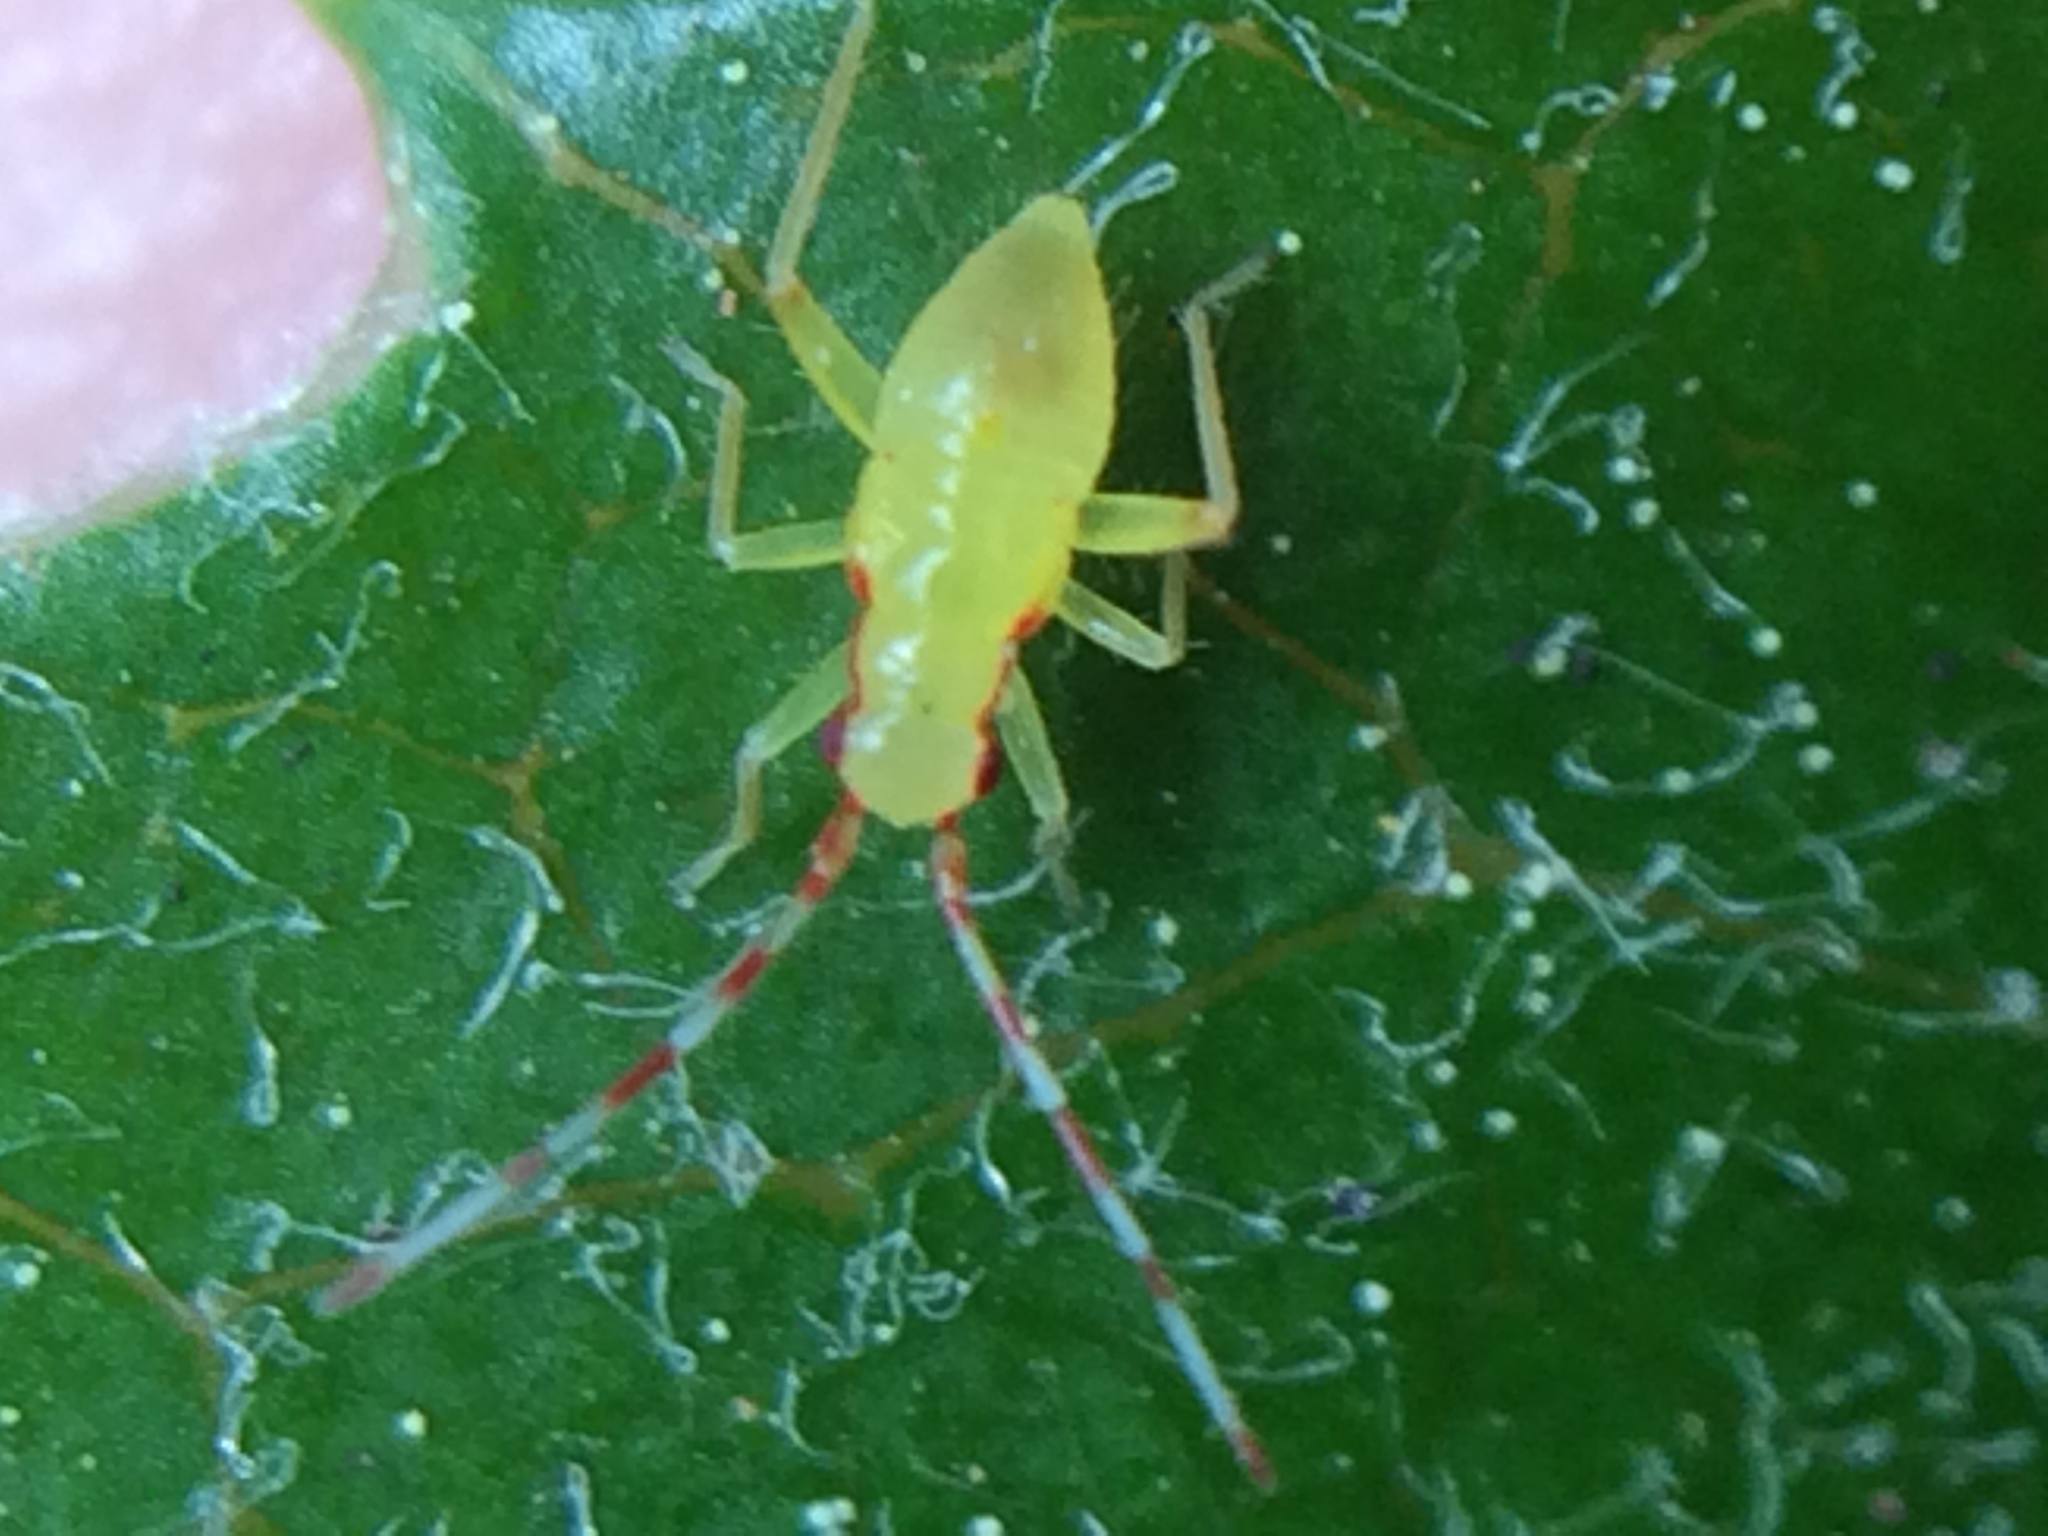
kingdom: Animalia
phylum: Arthropoda
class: Insecta
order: Hemiptera
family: Miridae
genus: Campyloneura
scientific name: Campyloneura virgula
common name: Predatory bug
